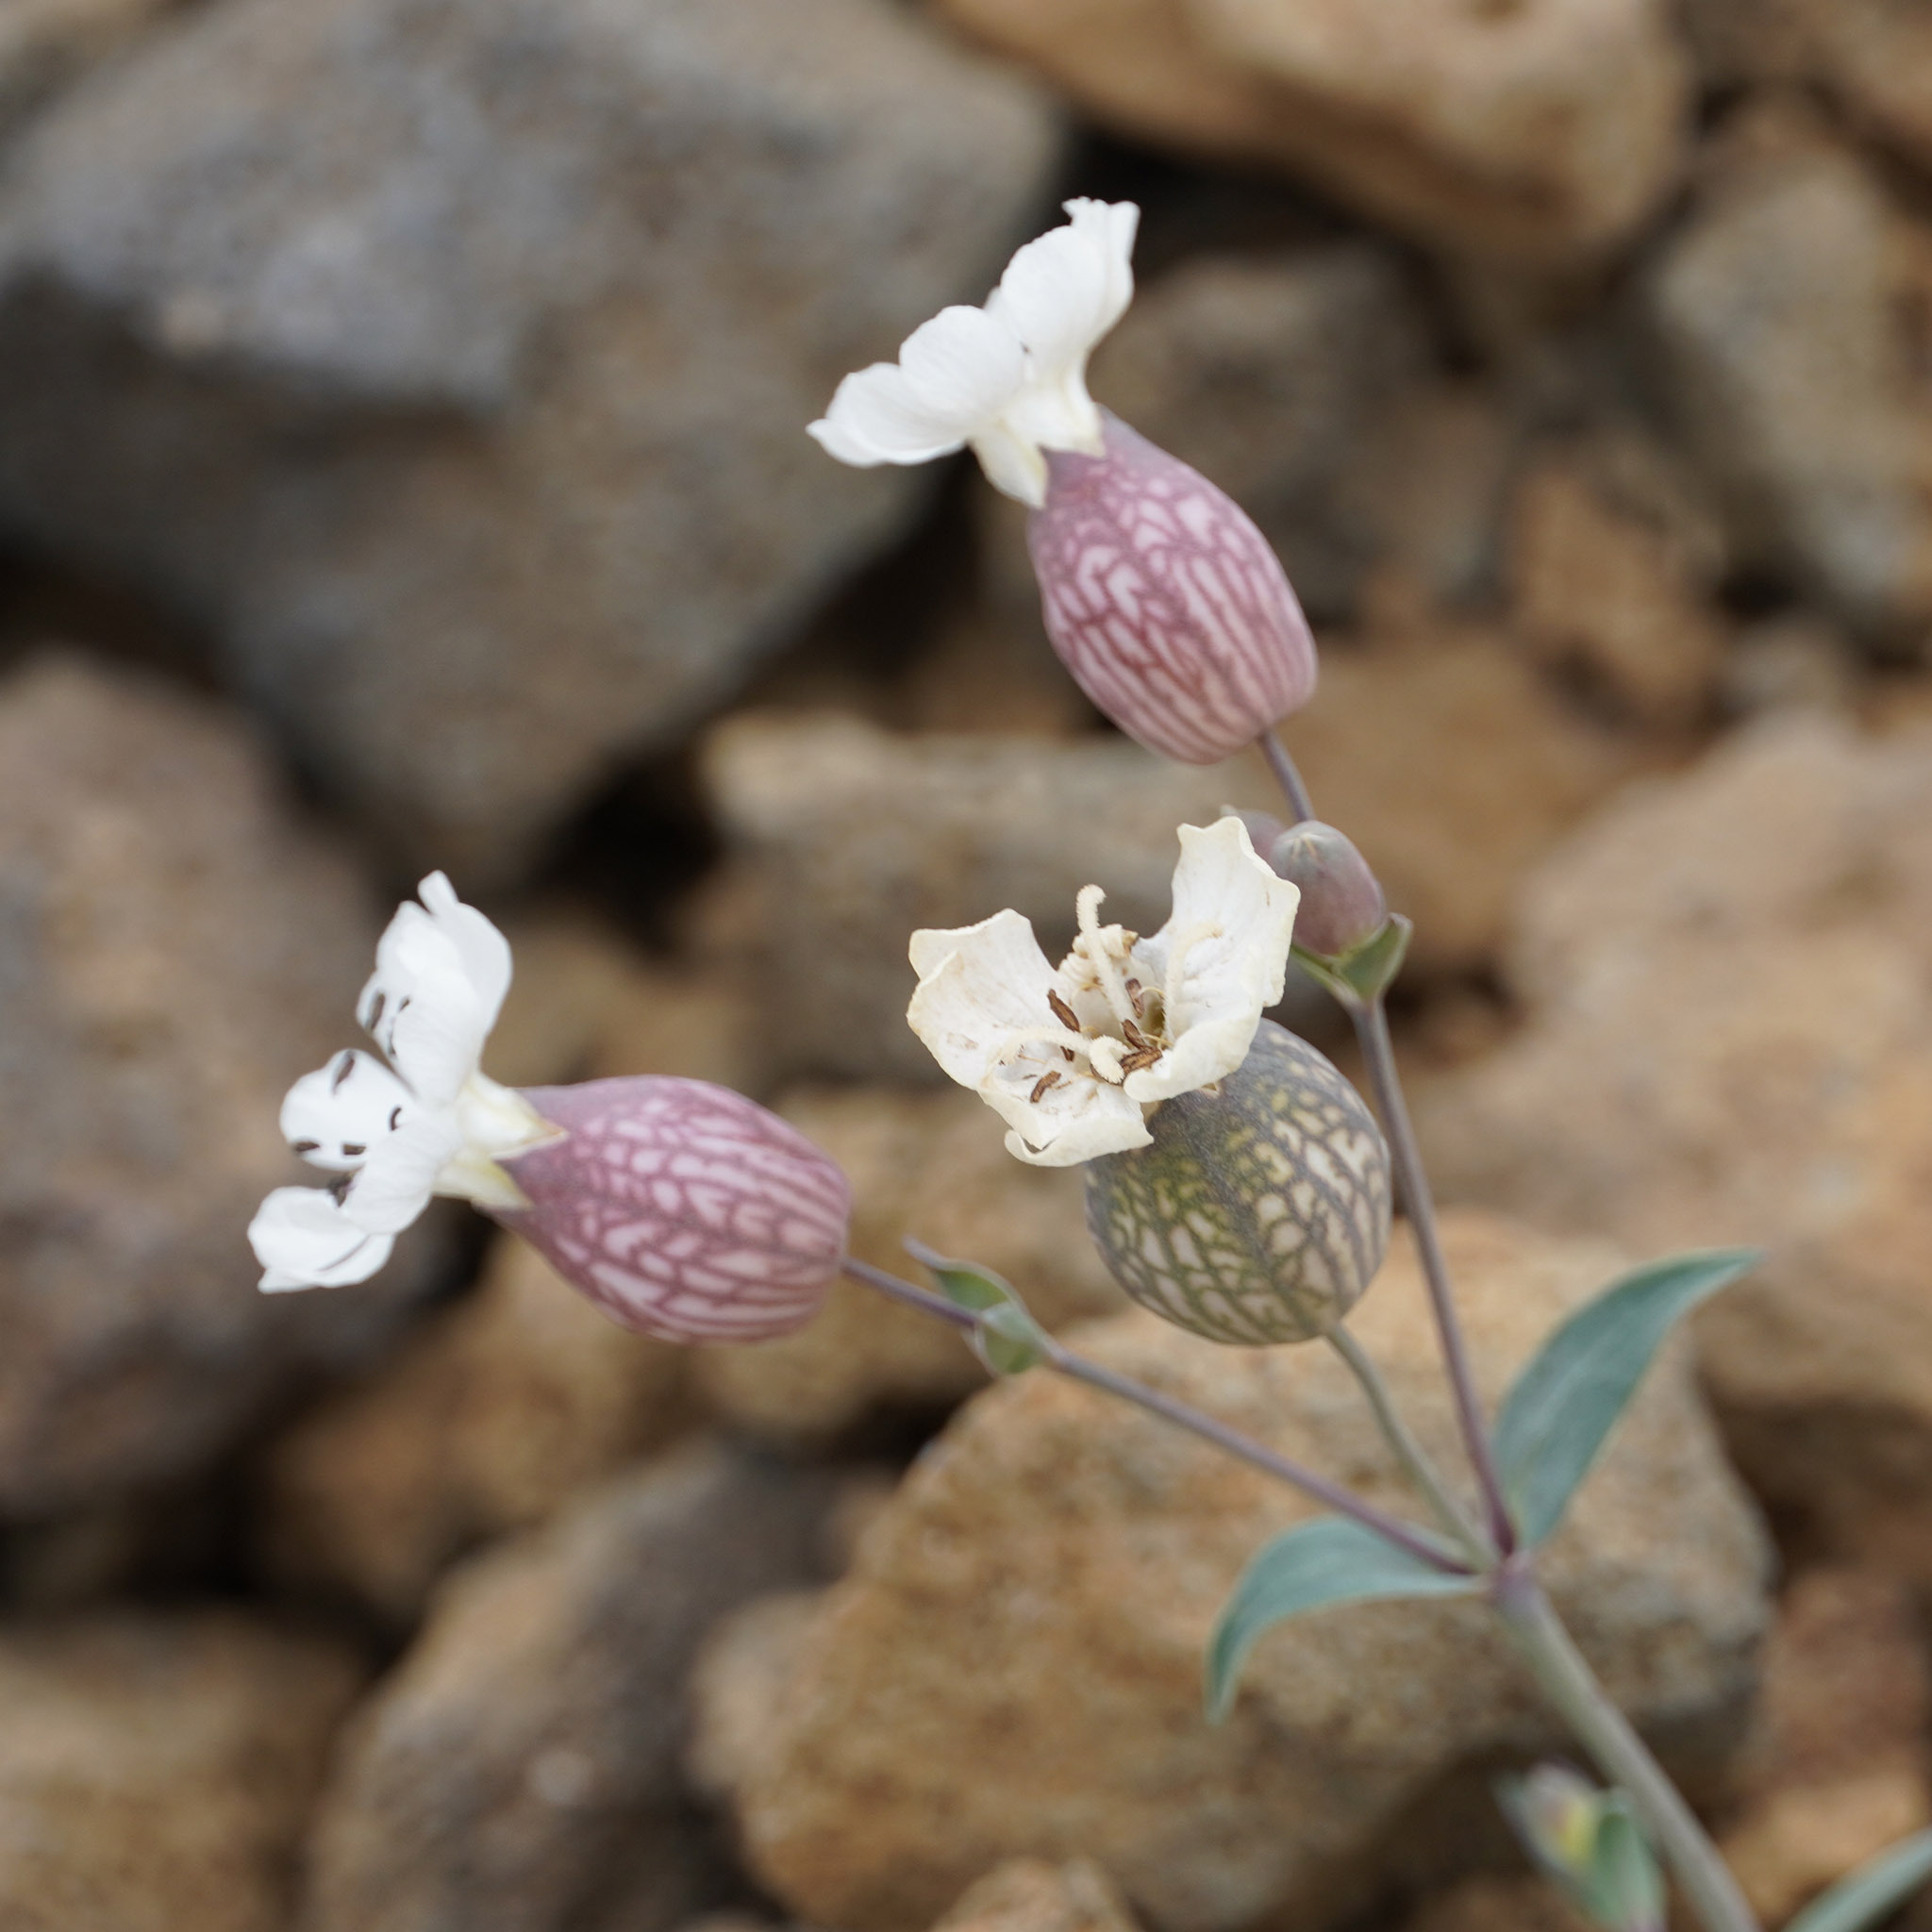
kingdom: Plantae
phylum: Tracheophyta
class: Magnoliopsida
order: Caryophyllales
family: Caryophyllaceae
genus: Silene
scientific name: Silene uniflora
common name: Sea campion
